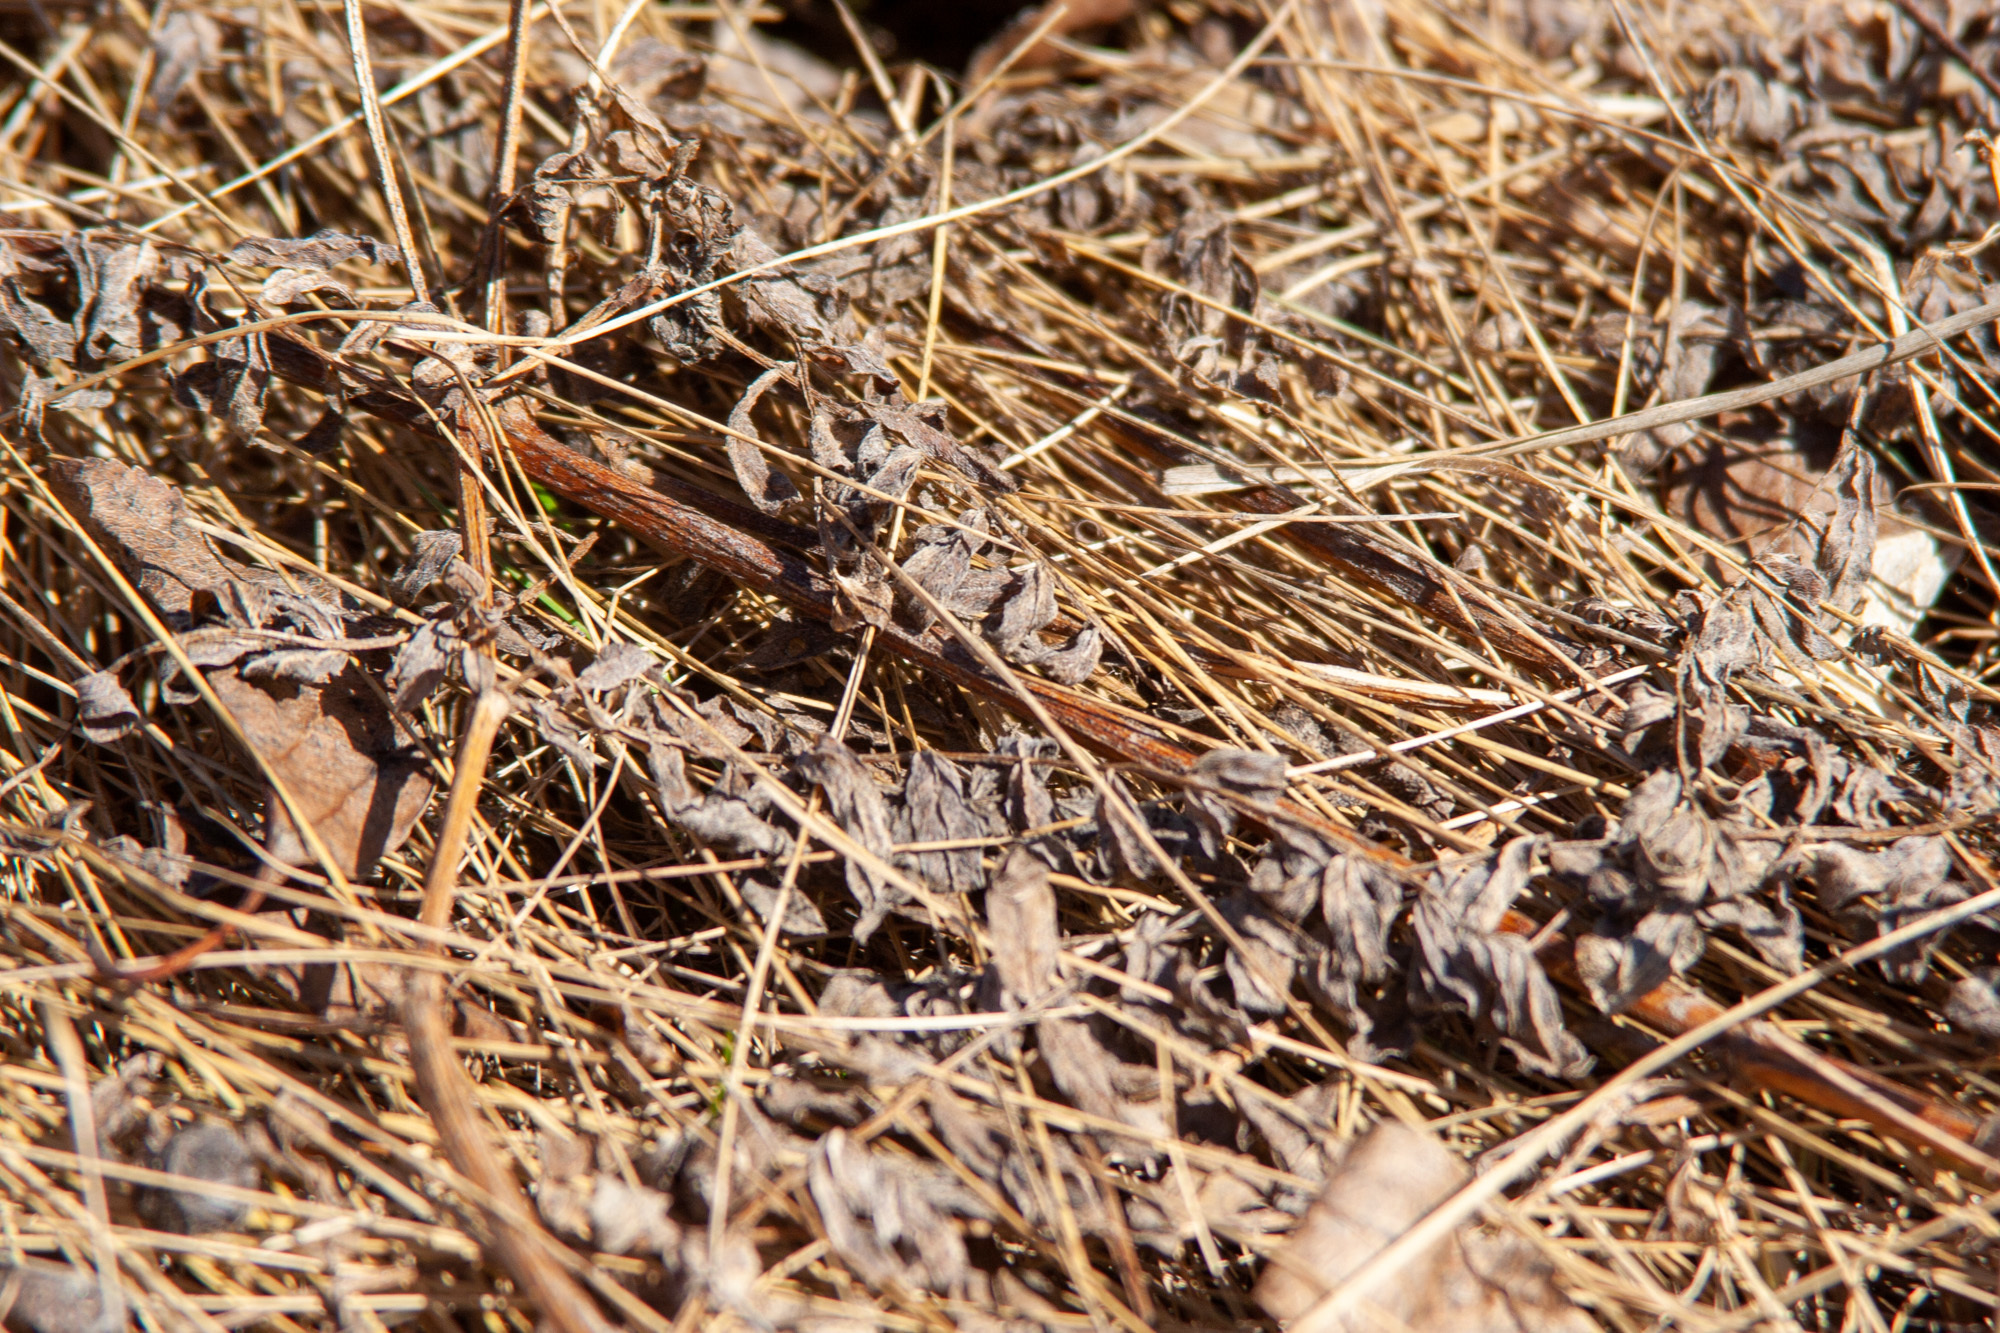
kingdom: Plantae
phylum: Tracheophyta
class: Magnoliopsida
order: Fabales
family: Fabaceae
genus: Astragalus
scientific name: Astragalus cicer
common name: Chick-pea milk-vetch
